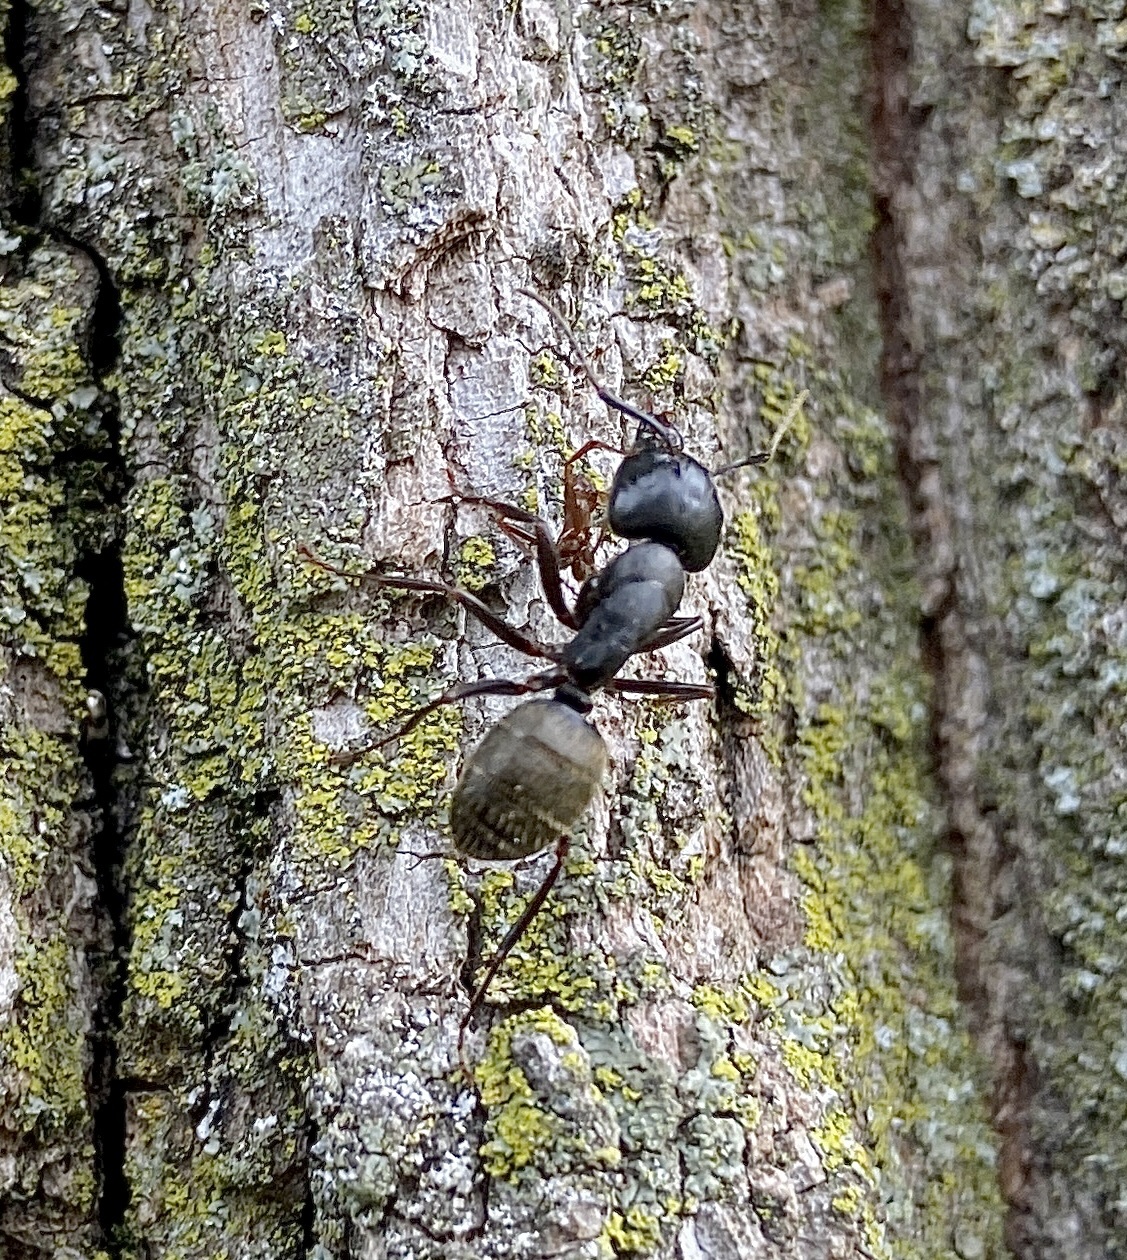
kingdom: Animalia
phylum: Arthropoda
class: Insecta
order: Hymenoptera
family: Formicidae
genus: Camponotus
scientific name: Camponotus pennsylvanicus
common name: Black carpenter ant
